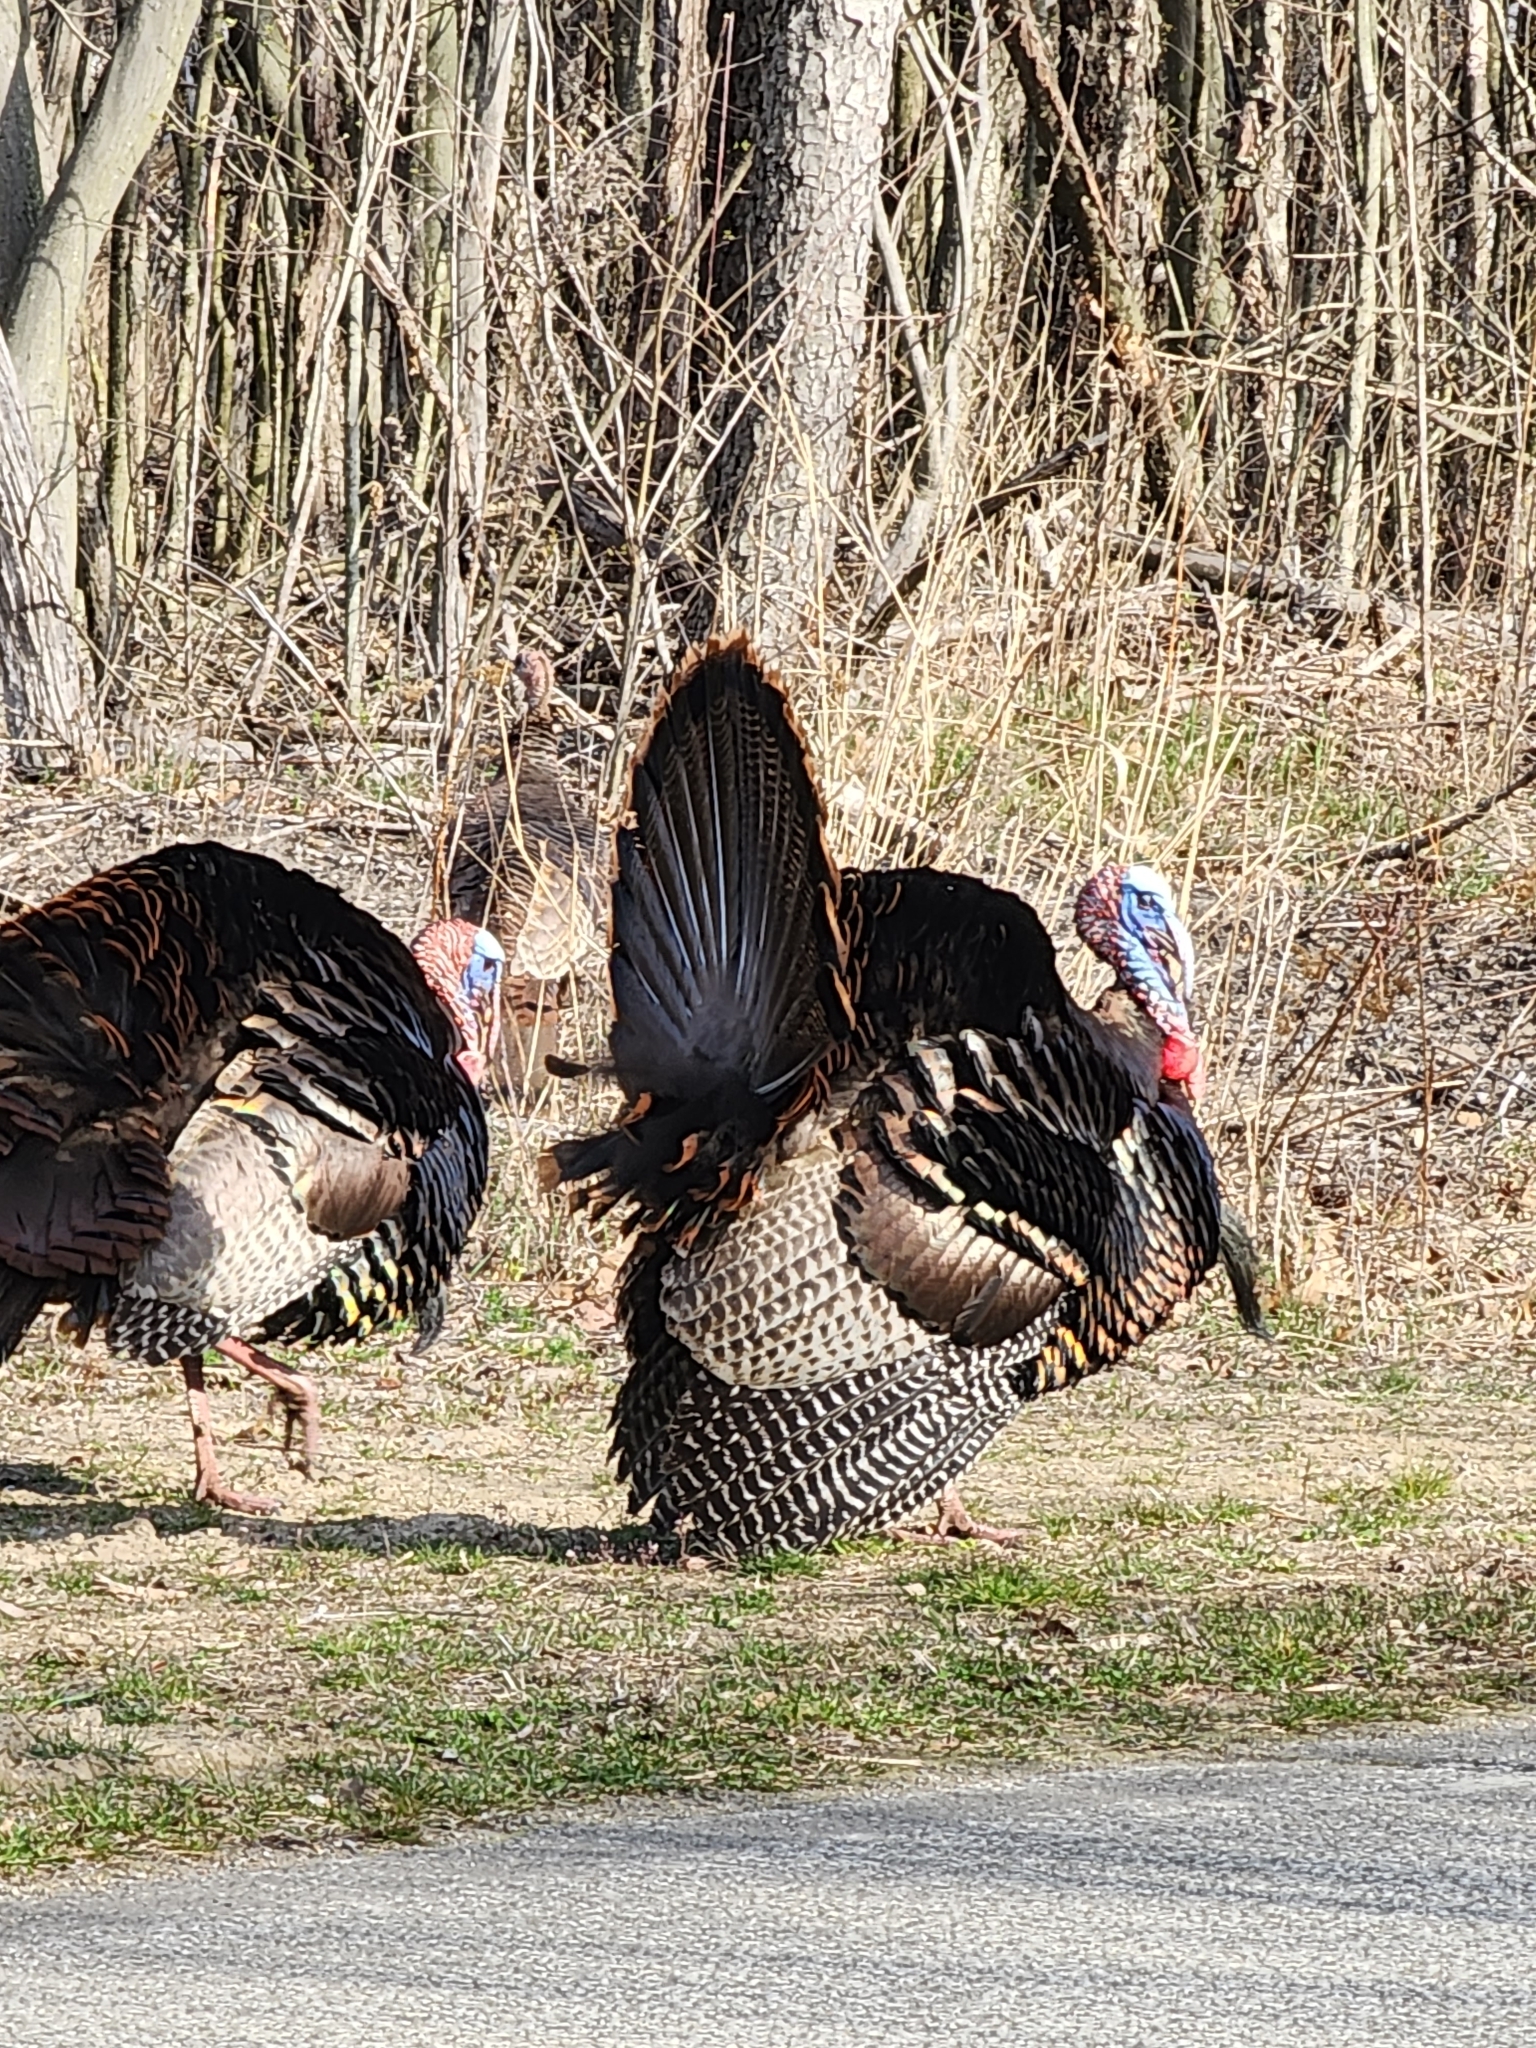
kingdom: Animalia
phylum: Chordata
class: Aves
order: Galliformes
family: Phasianidae
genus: Meleagris
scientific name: Meleagris gallopavo
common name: Wild turkey
